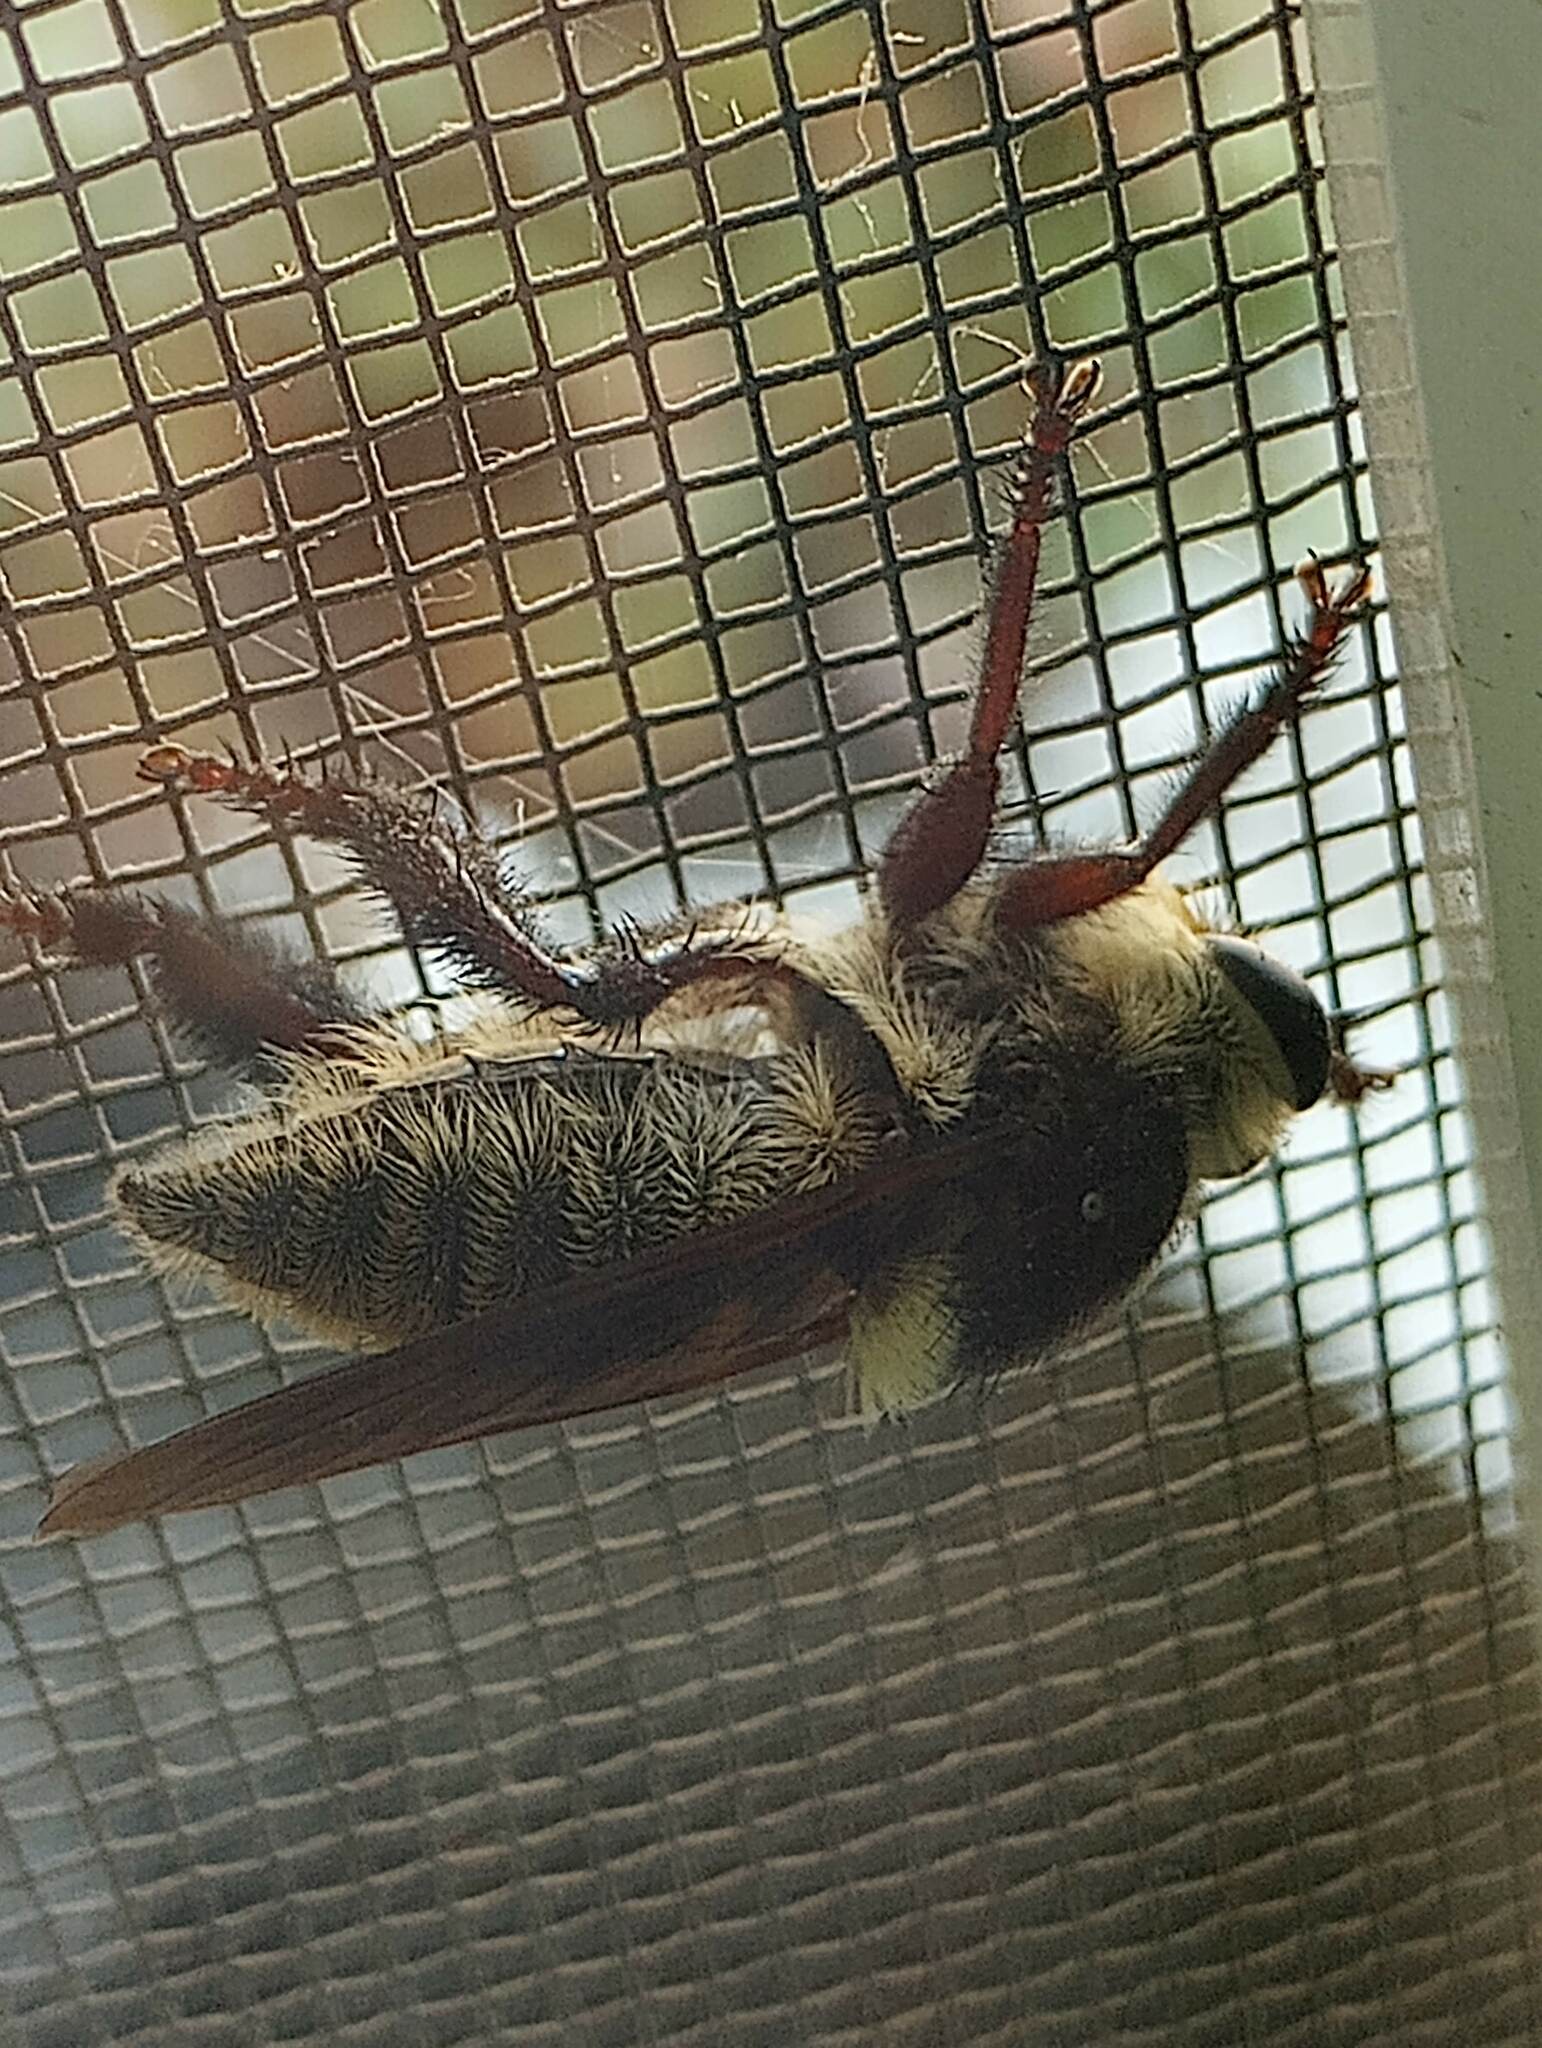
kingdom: Animalia
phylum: Arthropoda
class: Insecta
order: Diptera
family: Asilidae
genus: Mallophora
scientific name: Mallophora fautrix
